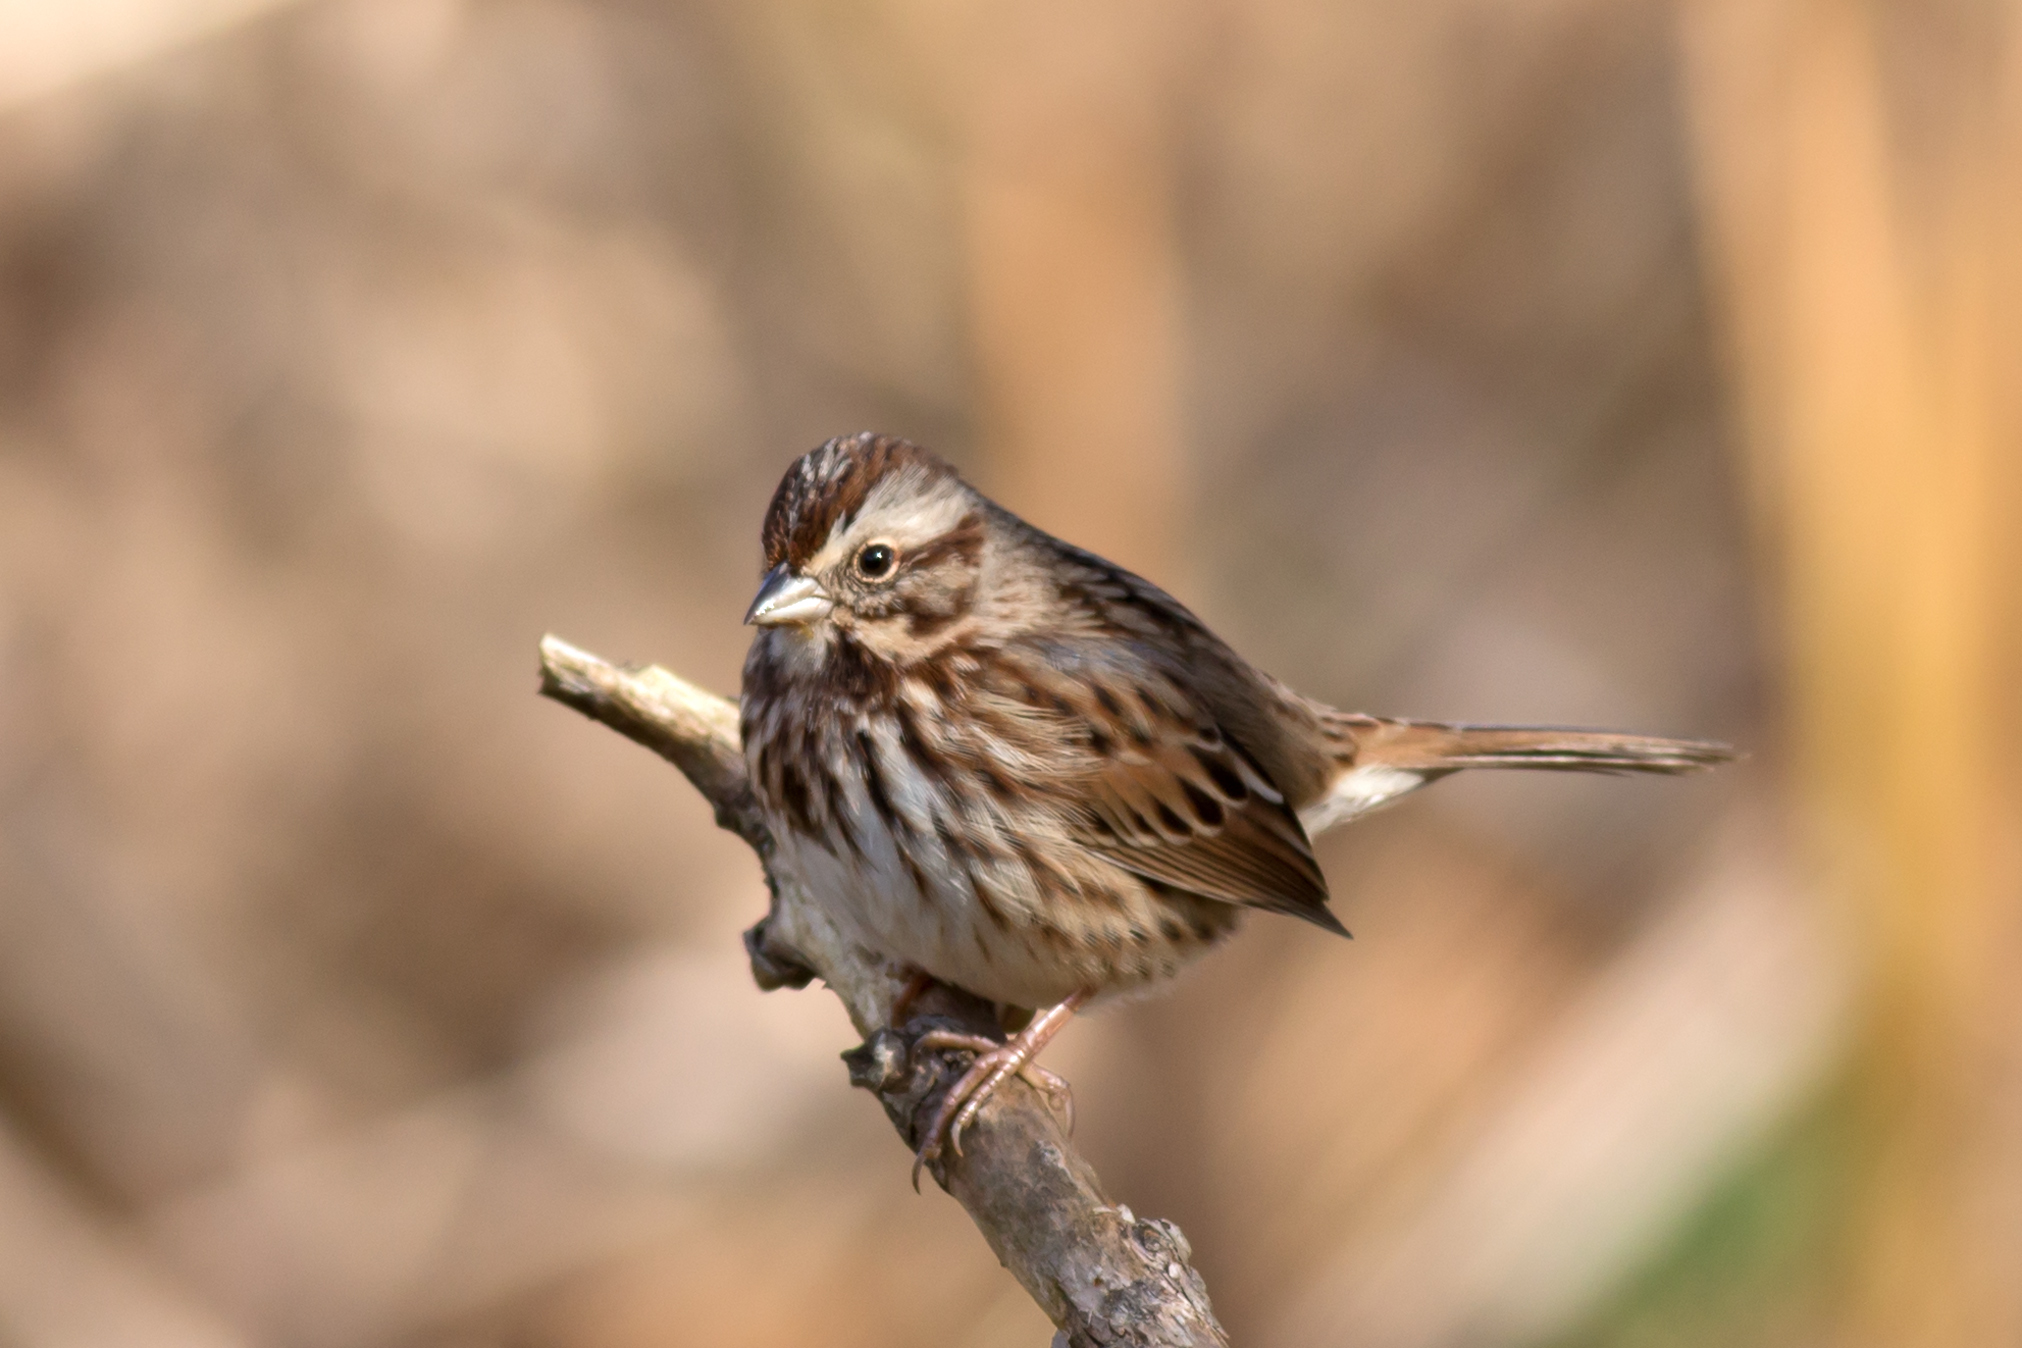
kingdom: Animalia
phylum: Chordata
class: Aves
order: Passeriformes
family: Passerellidae
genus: Melospiza
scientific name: Melospiza melodia
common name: Song sparrow
